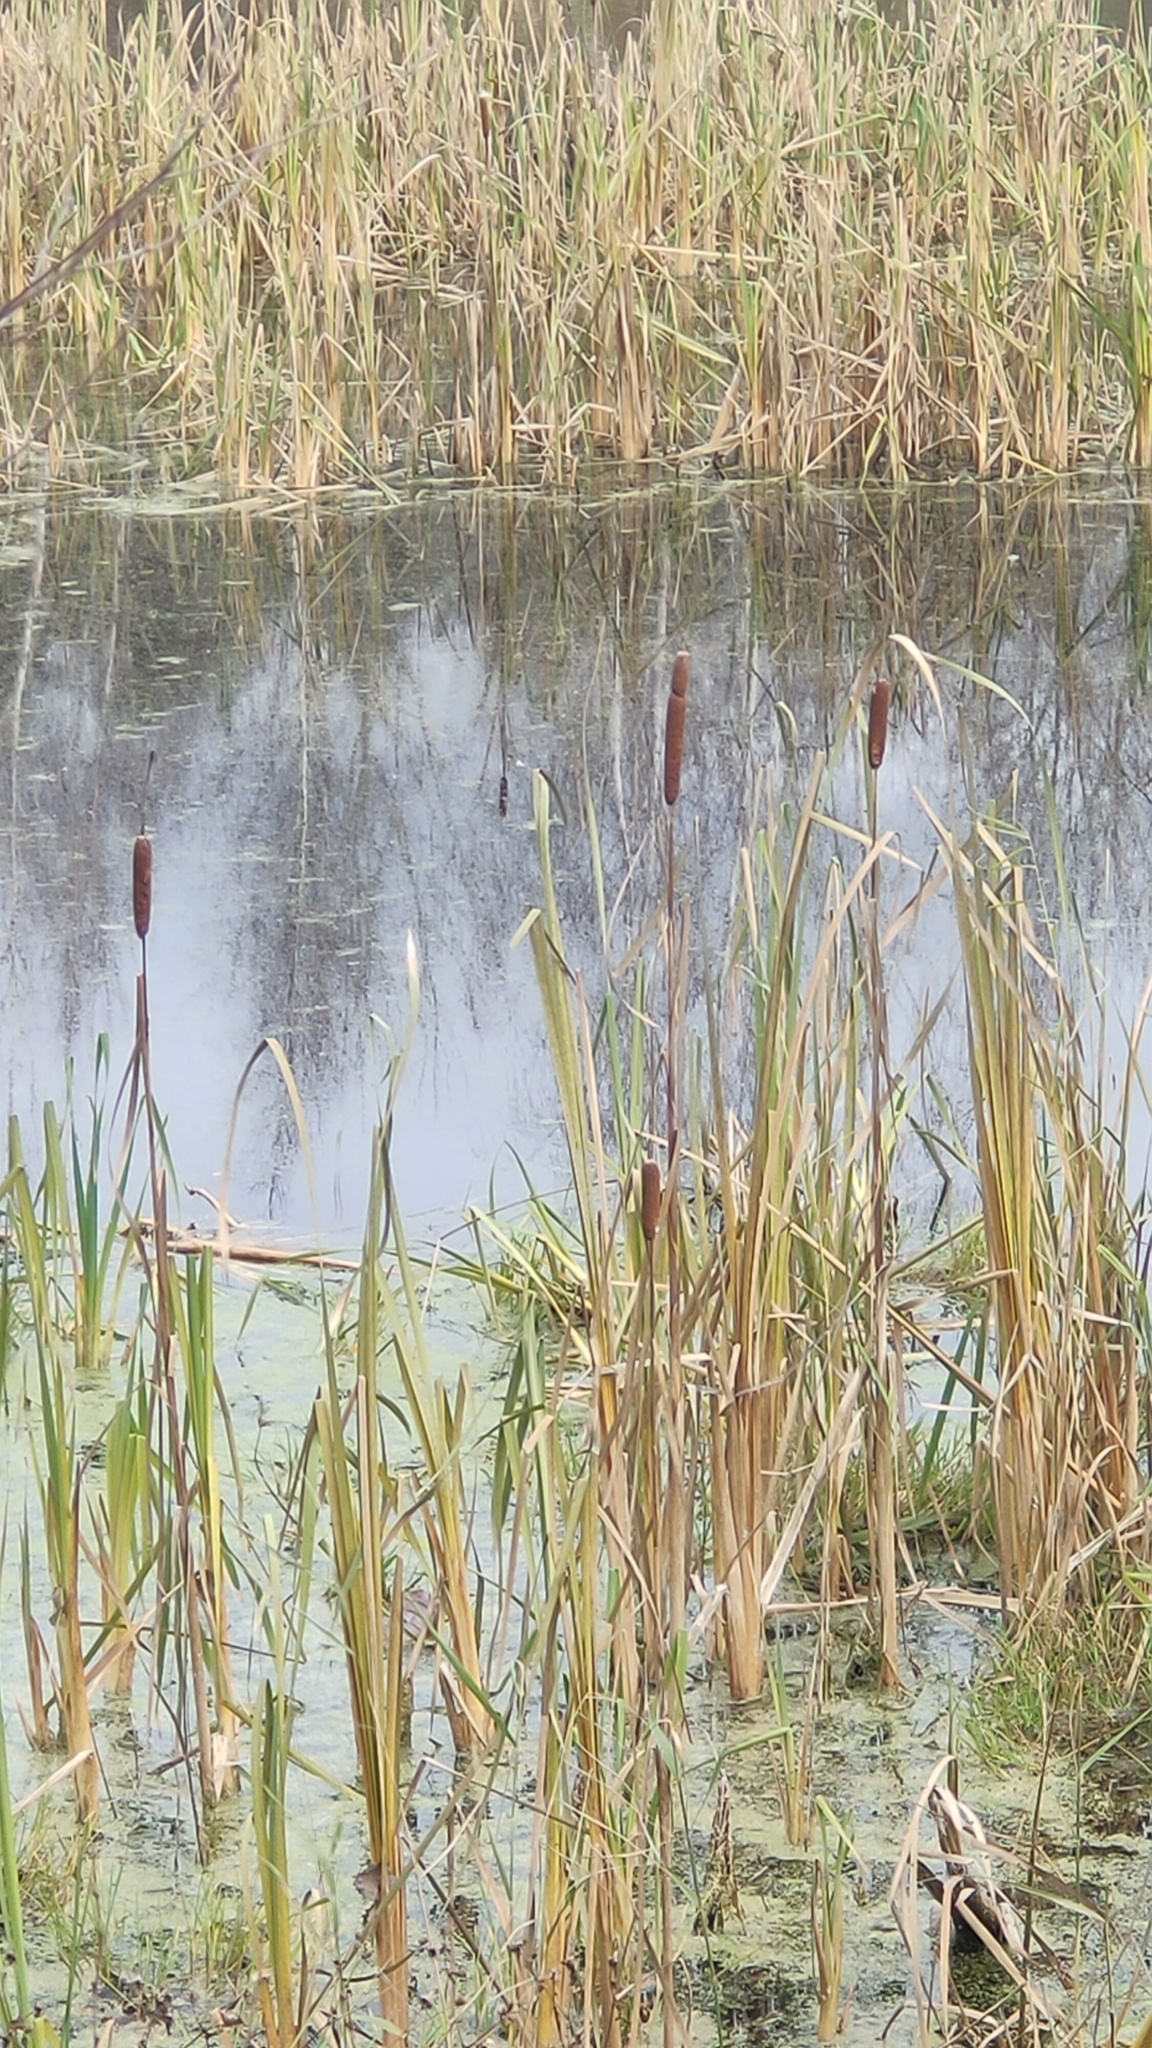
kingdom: Plantae
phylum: Tracheophyta
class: Liliopsida
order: Poales
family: Typhaceae
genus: Typha
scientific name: Typha latifolia
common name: Broadleaf cattail
